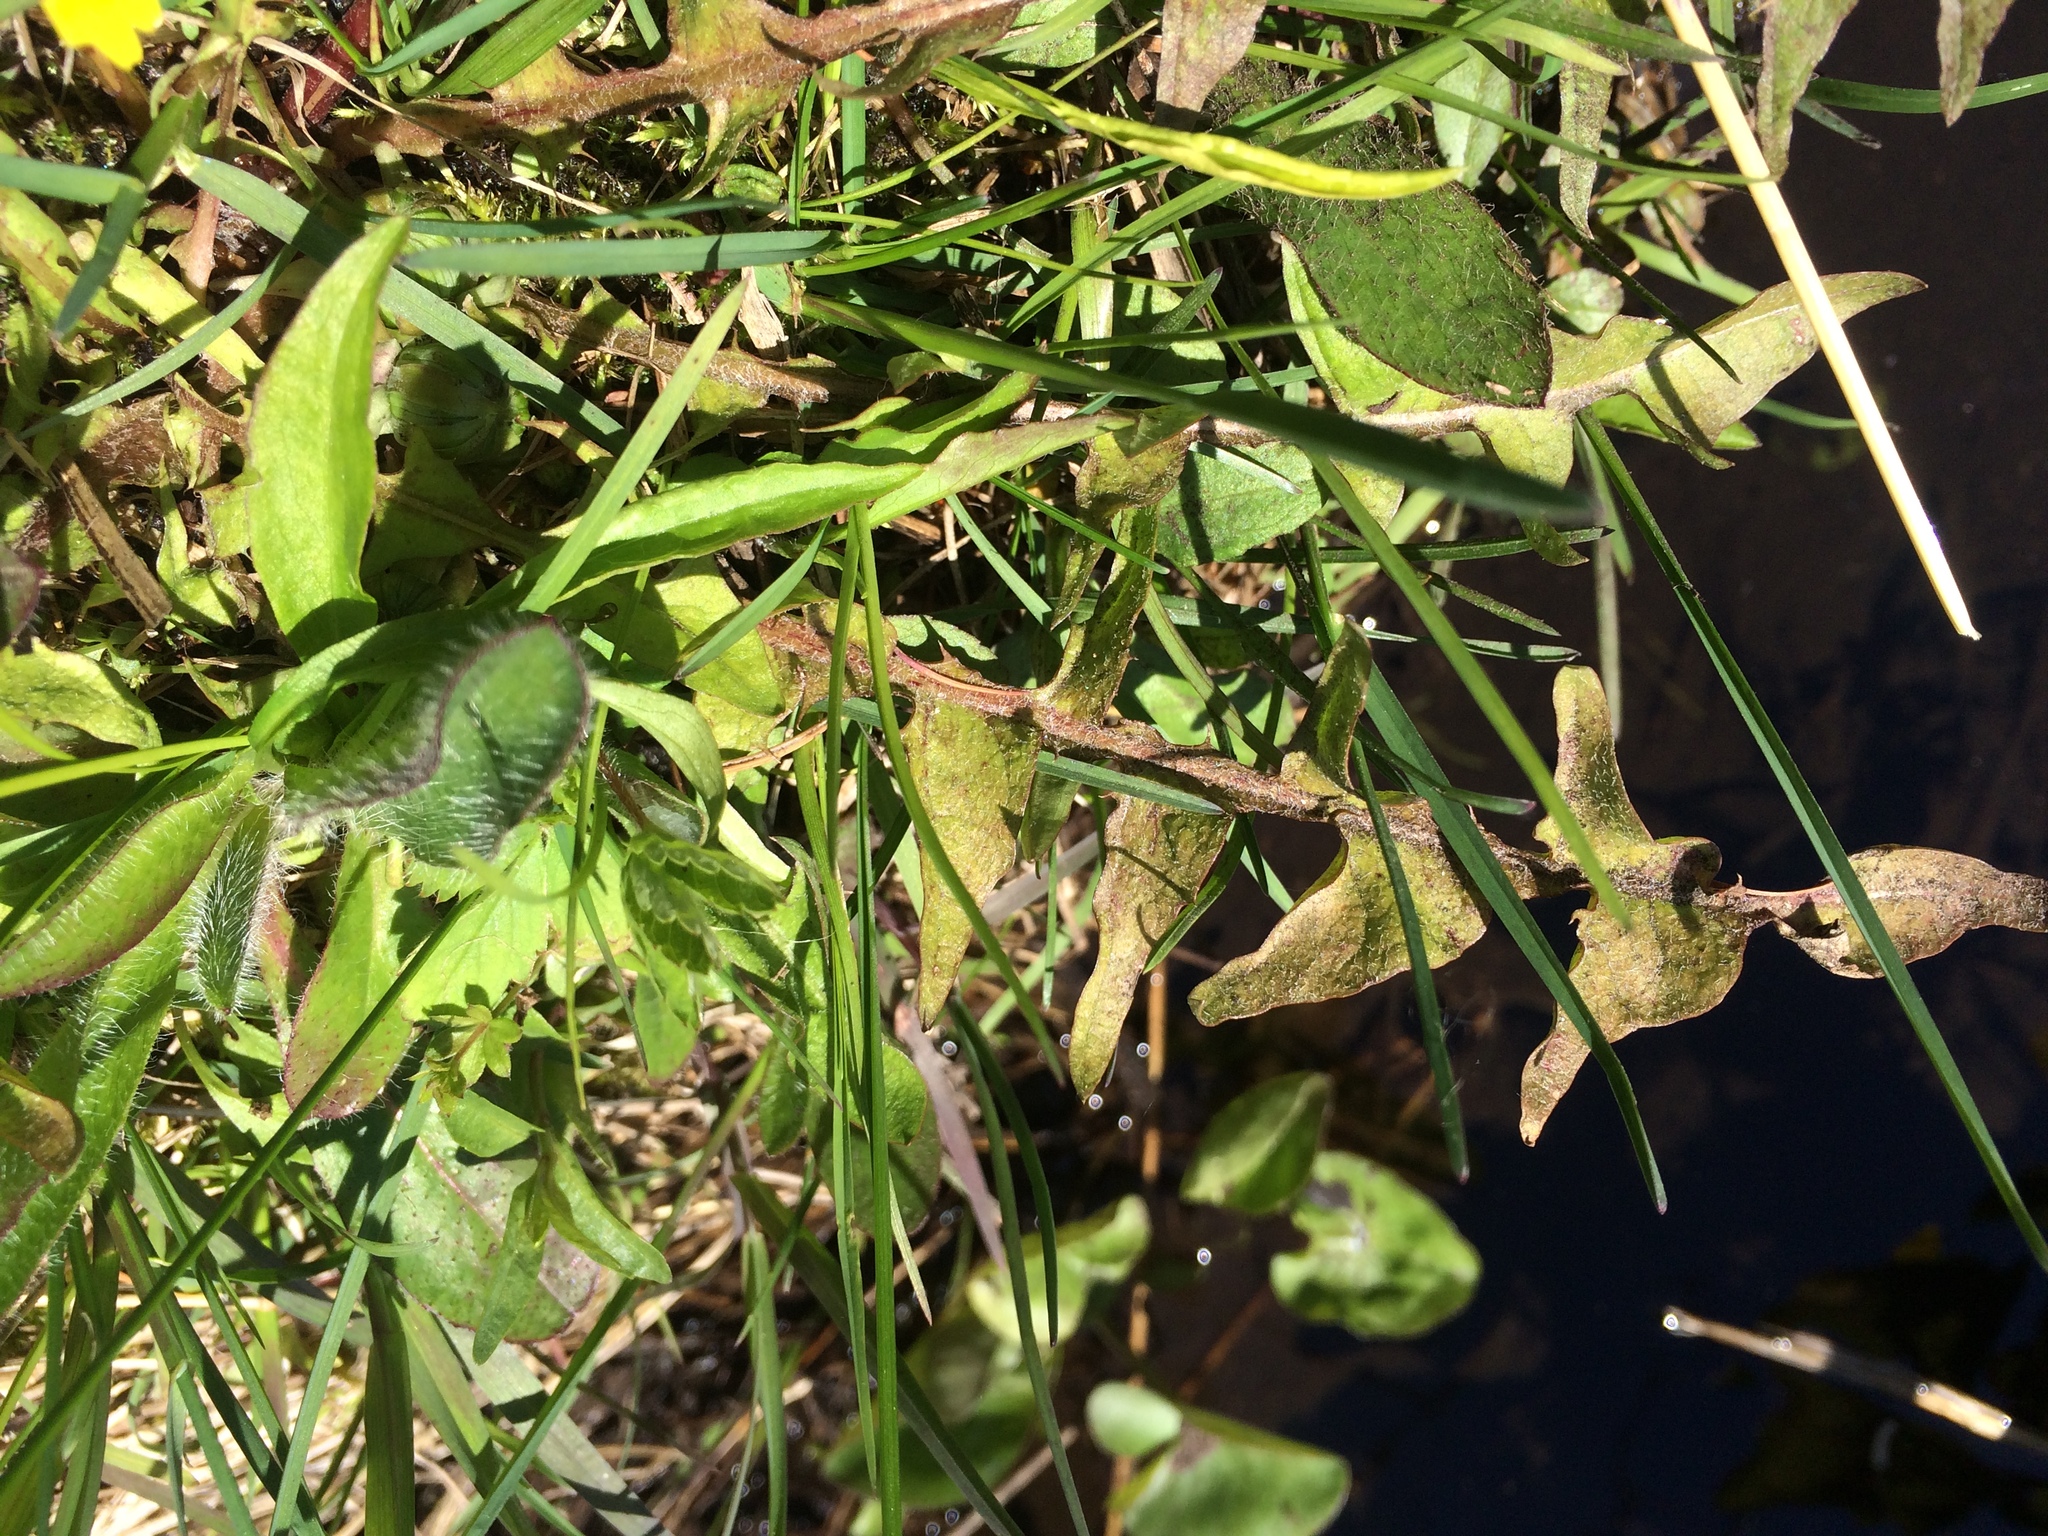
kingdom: Plantae
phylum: Tracheophyta
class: Magnoliopsida
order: Asterales
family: Asteraceae
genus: Taraxacum
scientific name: Taraxacum officinale
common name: Common dandelion
